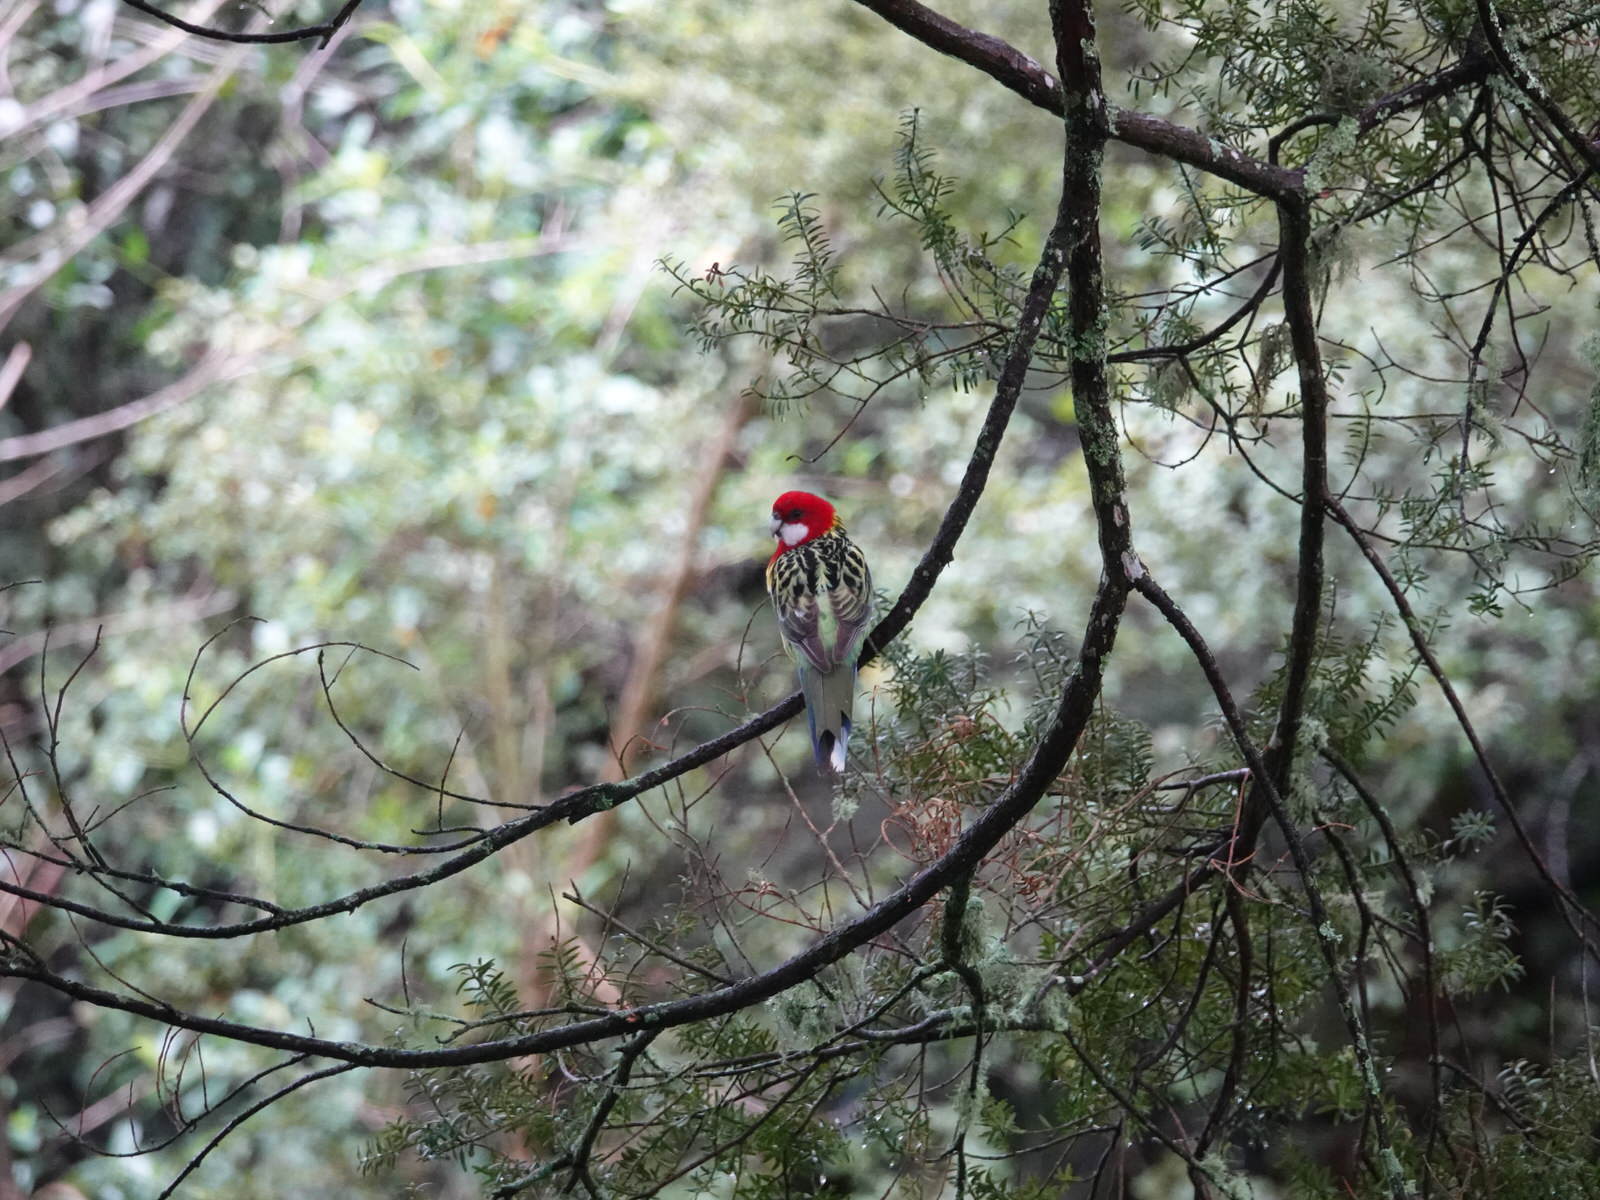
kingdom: Animalia
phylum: Chordata
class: Aves
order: Psittaciformes
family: Psittacidae
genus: Platycercus
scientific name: Platycercus eximius
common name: Eastern rosella
